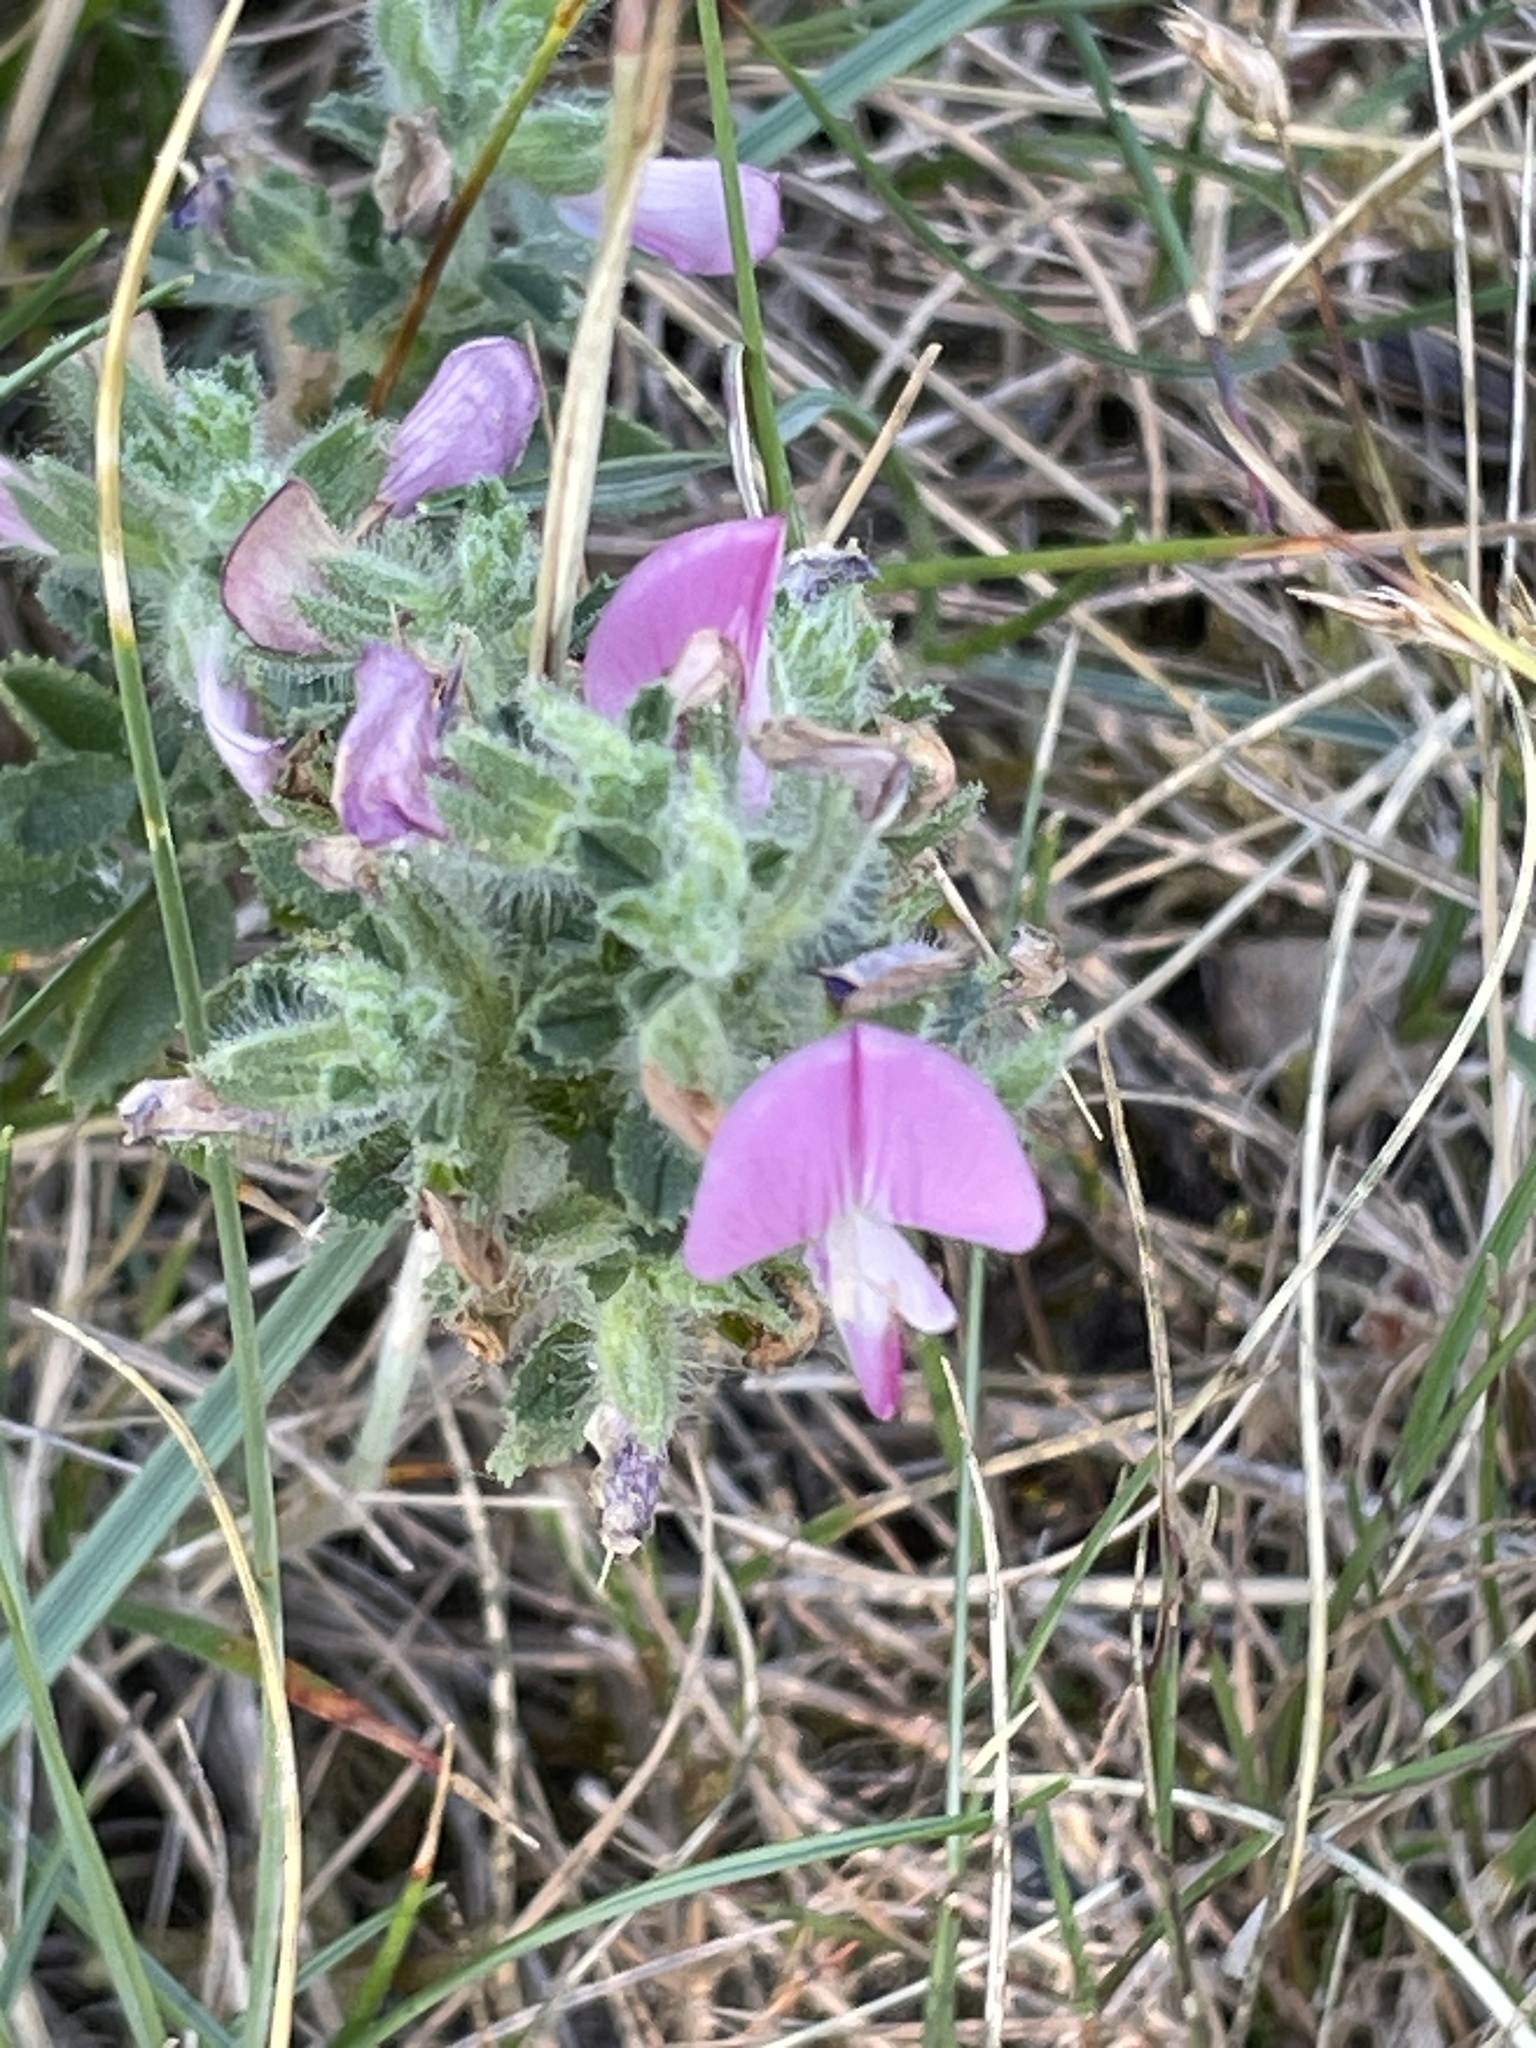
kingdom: Plantae
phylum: Tracheophyta
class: Magnoliopsida
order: Fabales
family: Fabaceae
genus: Ononis
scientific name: Ononis spinosa
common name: Spiny restharrow
